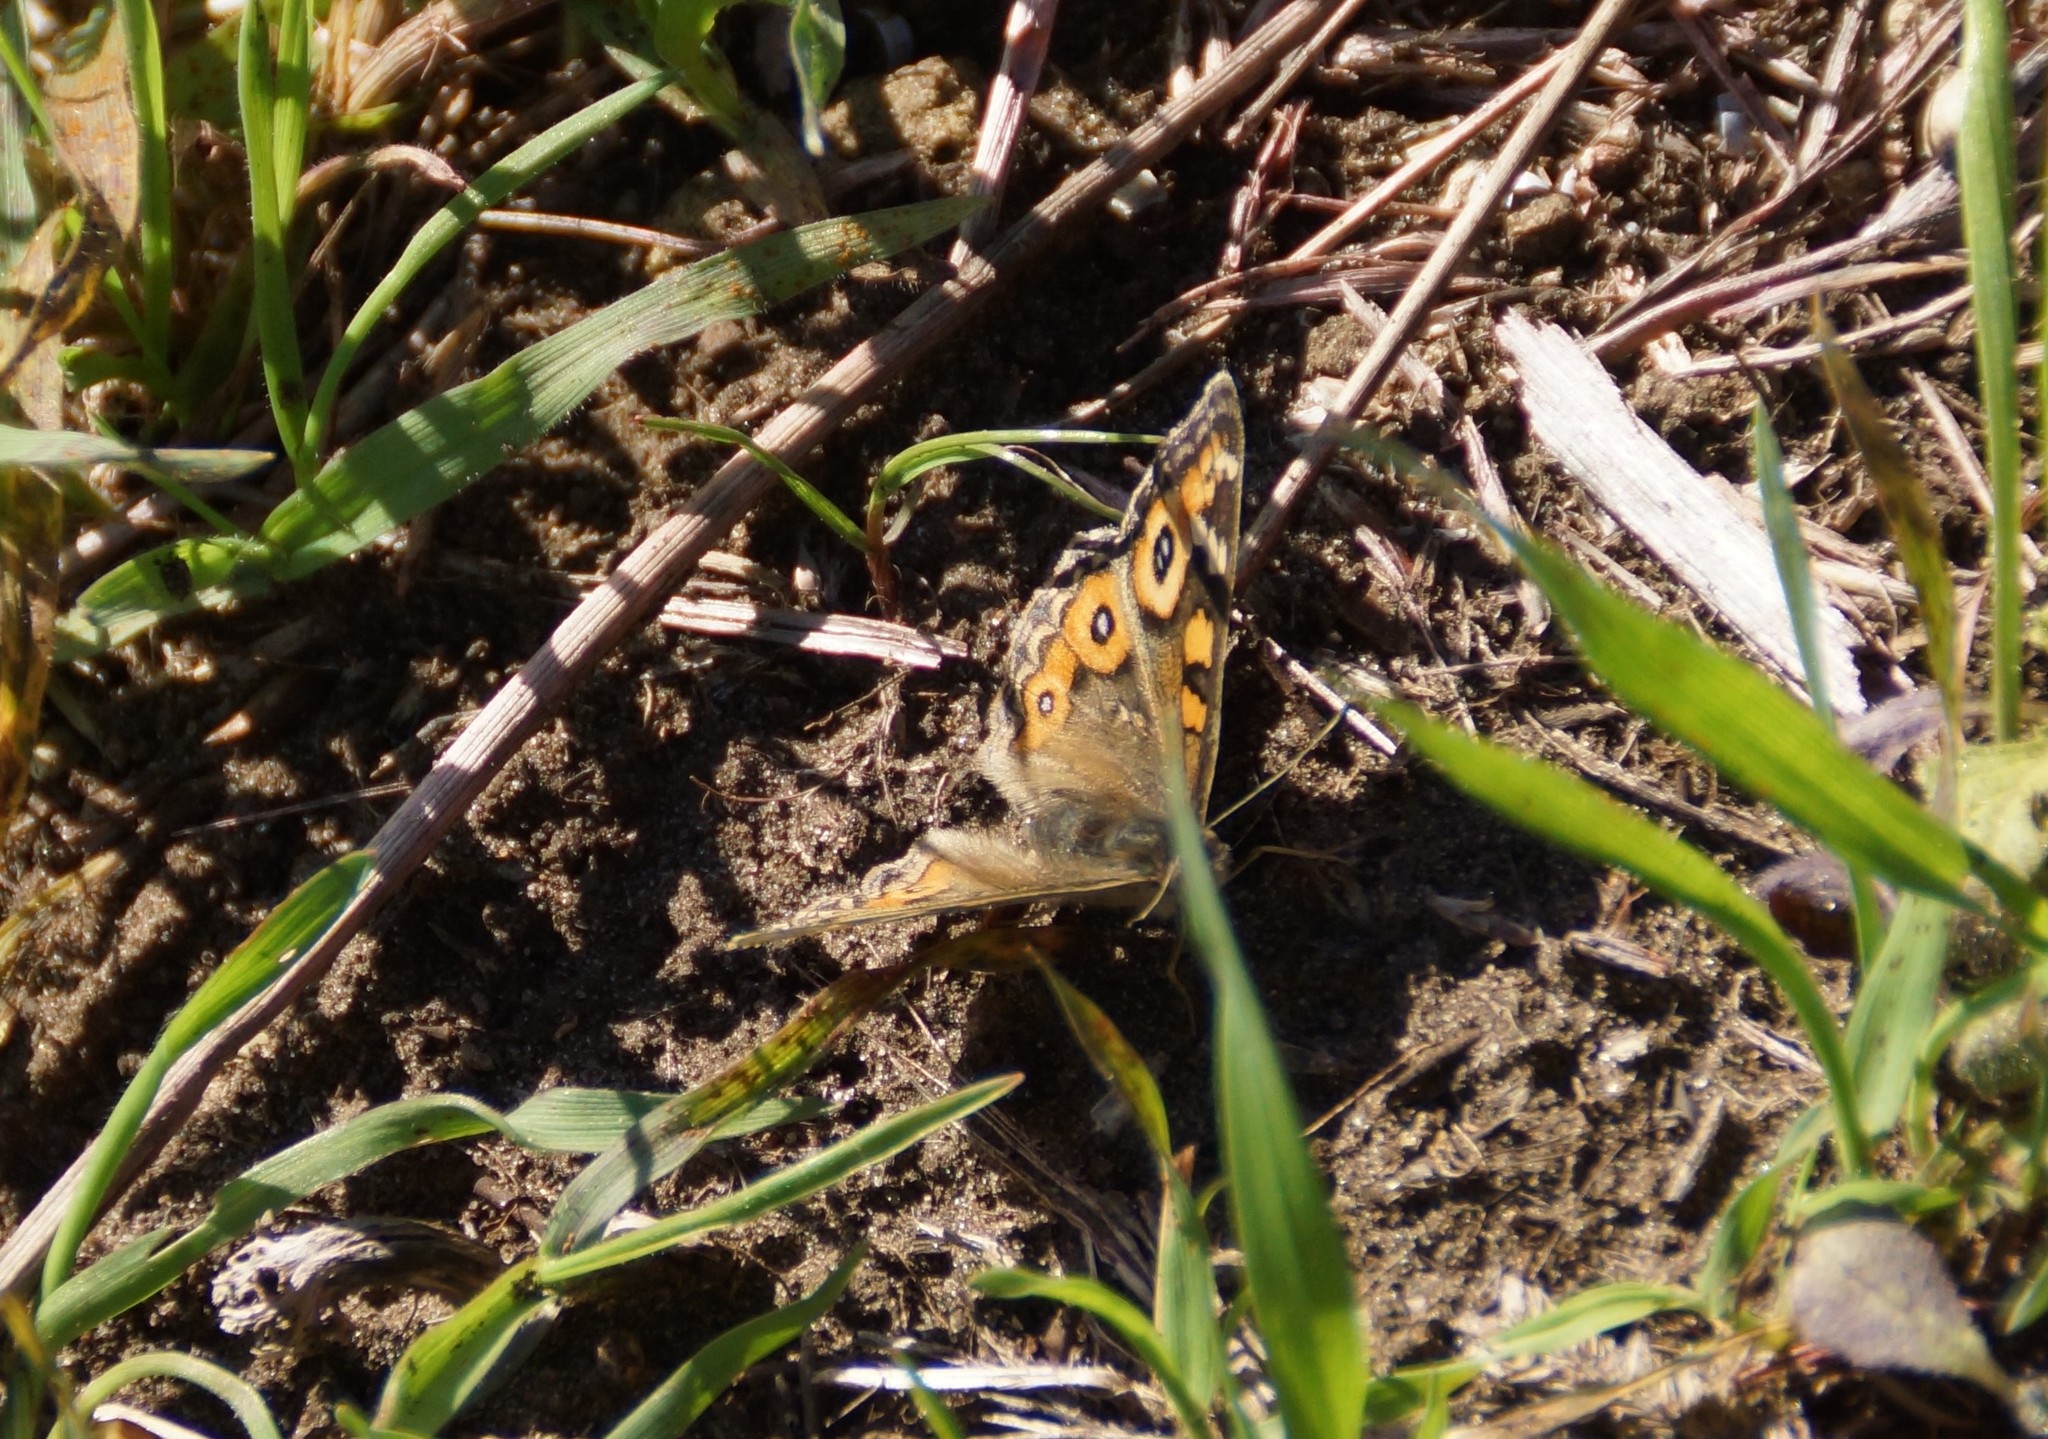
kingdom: Animalia
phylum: Arthropoda
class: Insecta
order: Lepidoptera
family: Nymphalidae
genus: Junonia
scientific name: Junonia villida
